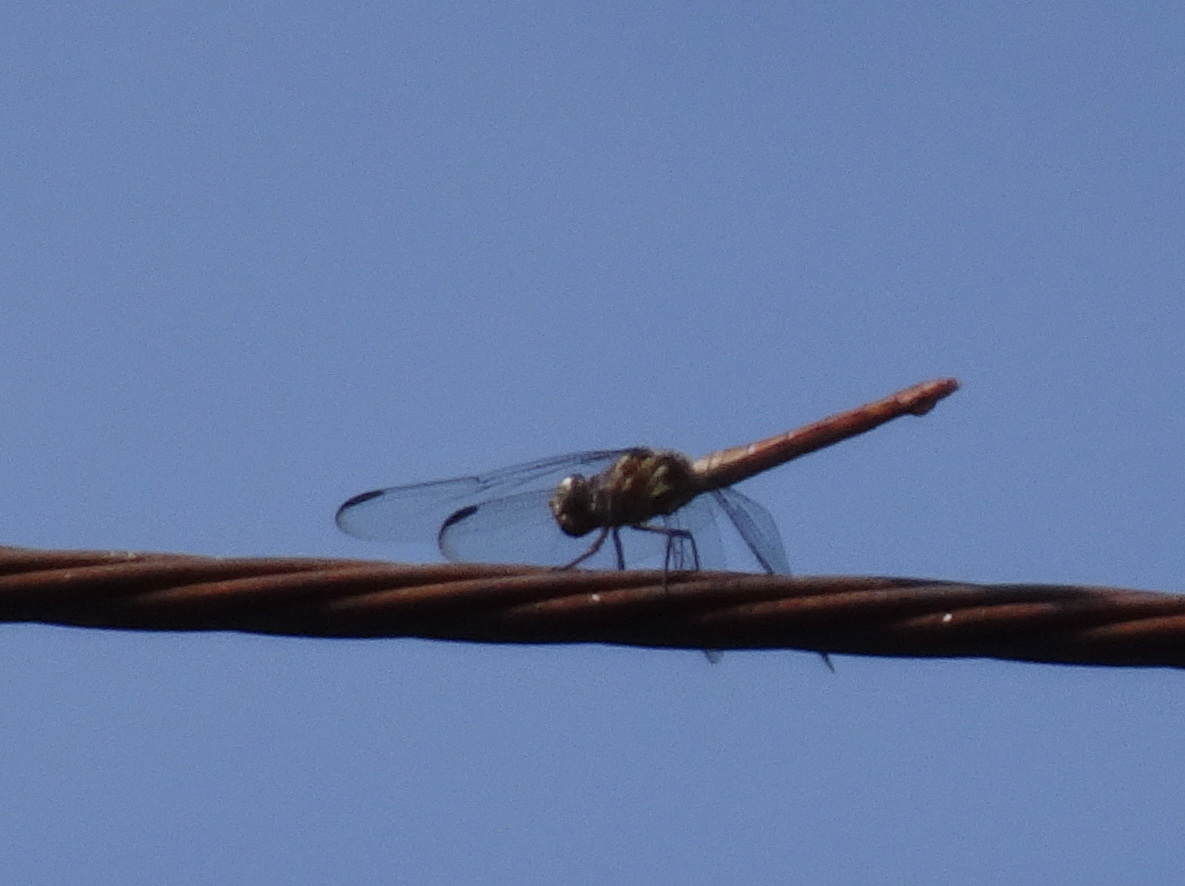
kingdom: Animalia
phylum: Arthropoda
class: Insecta
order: Odonata
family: Libellulidae
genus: Orthemis
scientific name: Orthemis ferruginea
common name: Roseate skimmer
